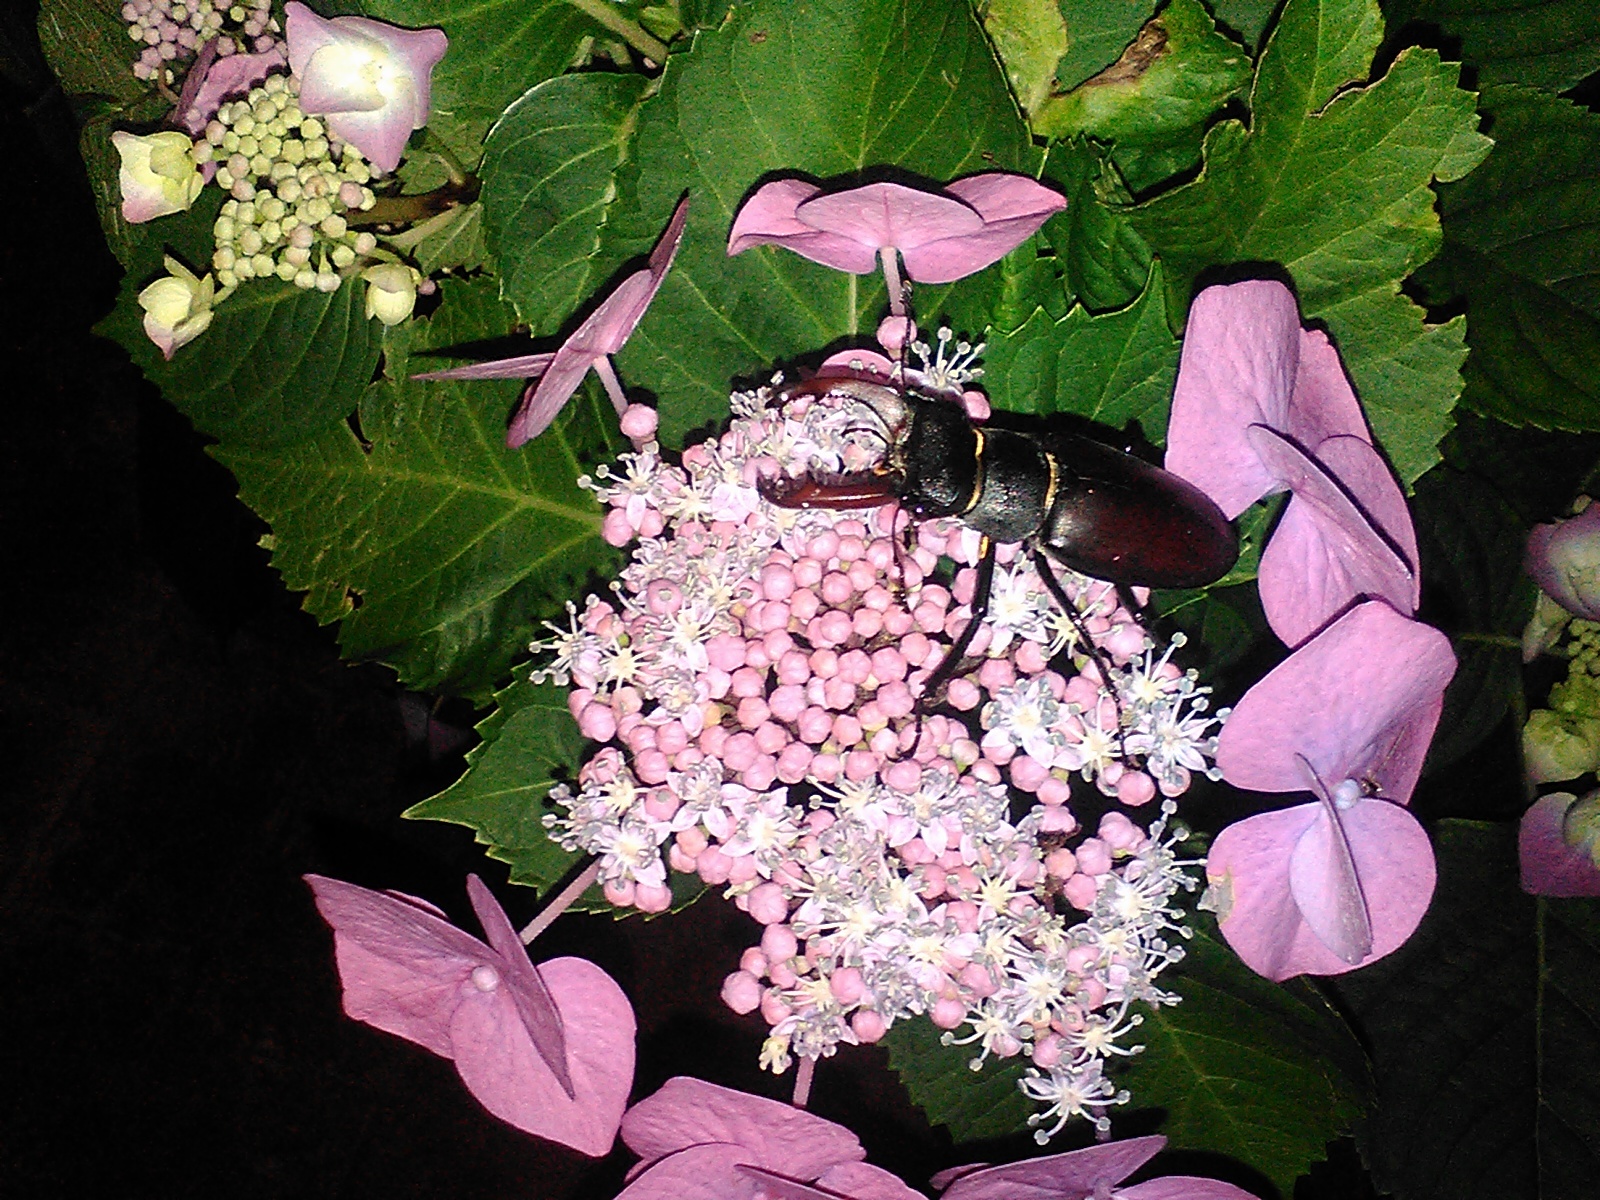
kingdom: Animalia
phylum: Arthropoda
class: Insecta
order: Coleoptera
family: Lucanidae
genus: Lucanus
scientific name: Lucanus cervus
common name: Stag beetle
